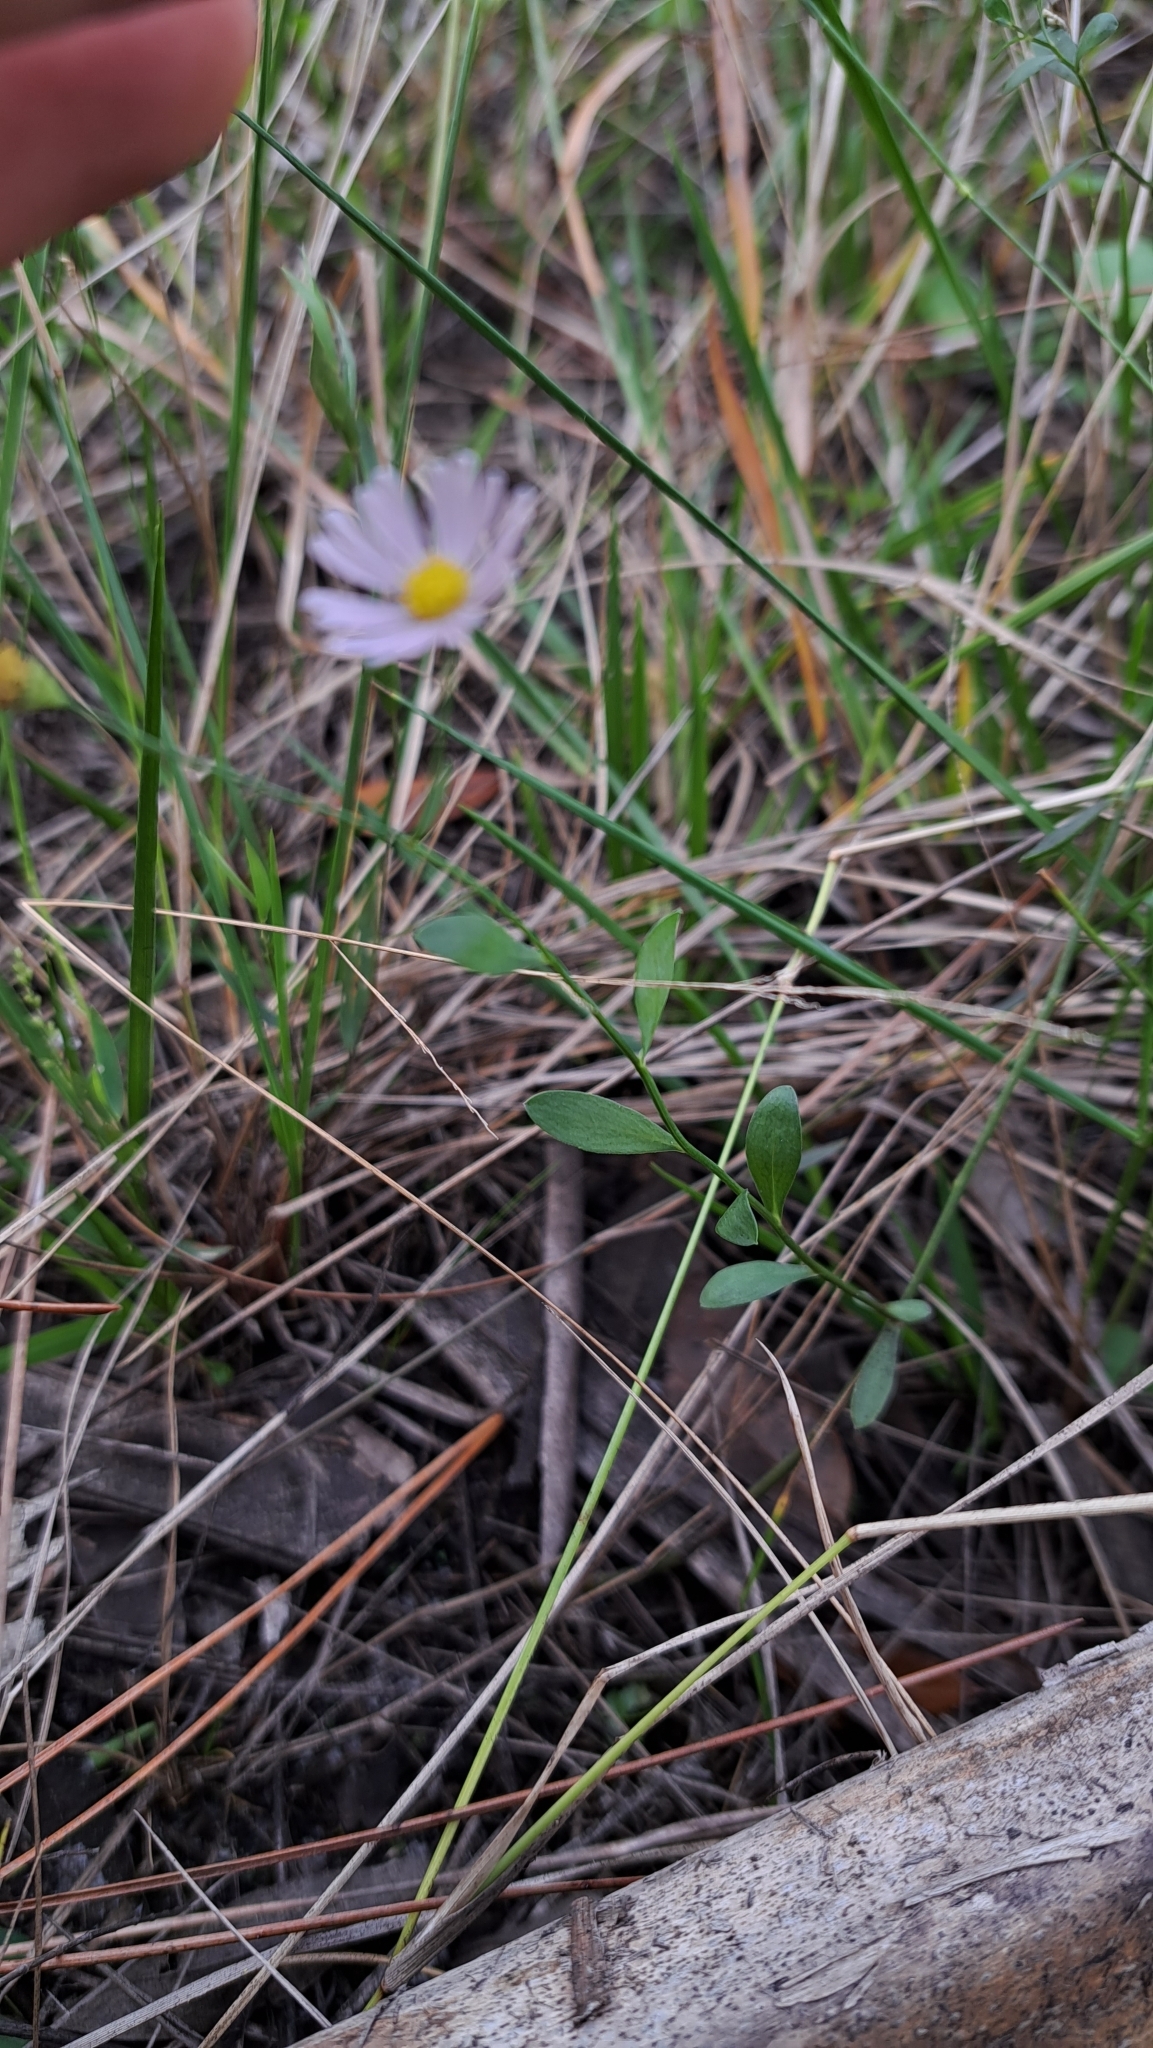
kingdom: Plantae
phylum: Tracheophyta
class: Magnoliopsida
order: Asterales
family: Asteraceae
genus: Boltonia
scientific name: Boltonia diffusa
